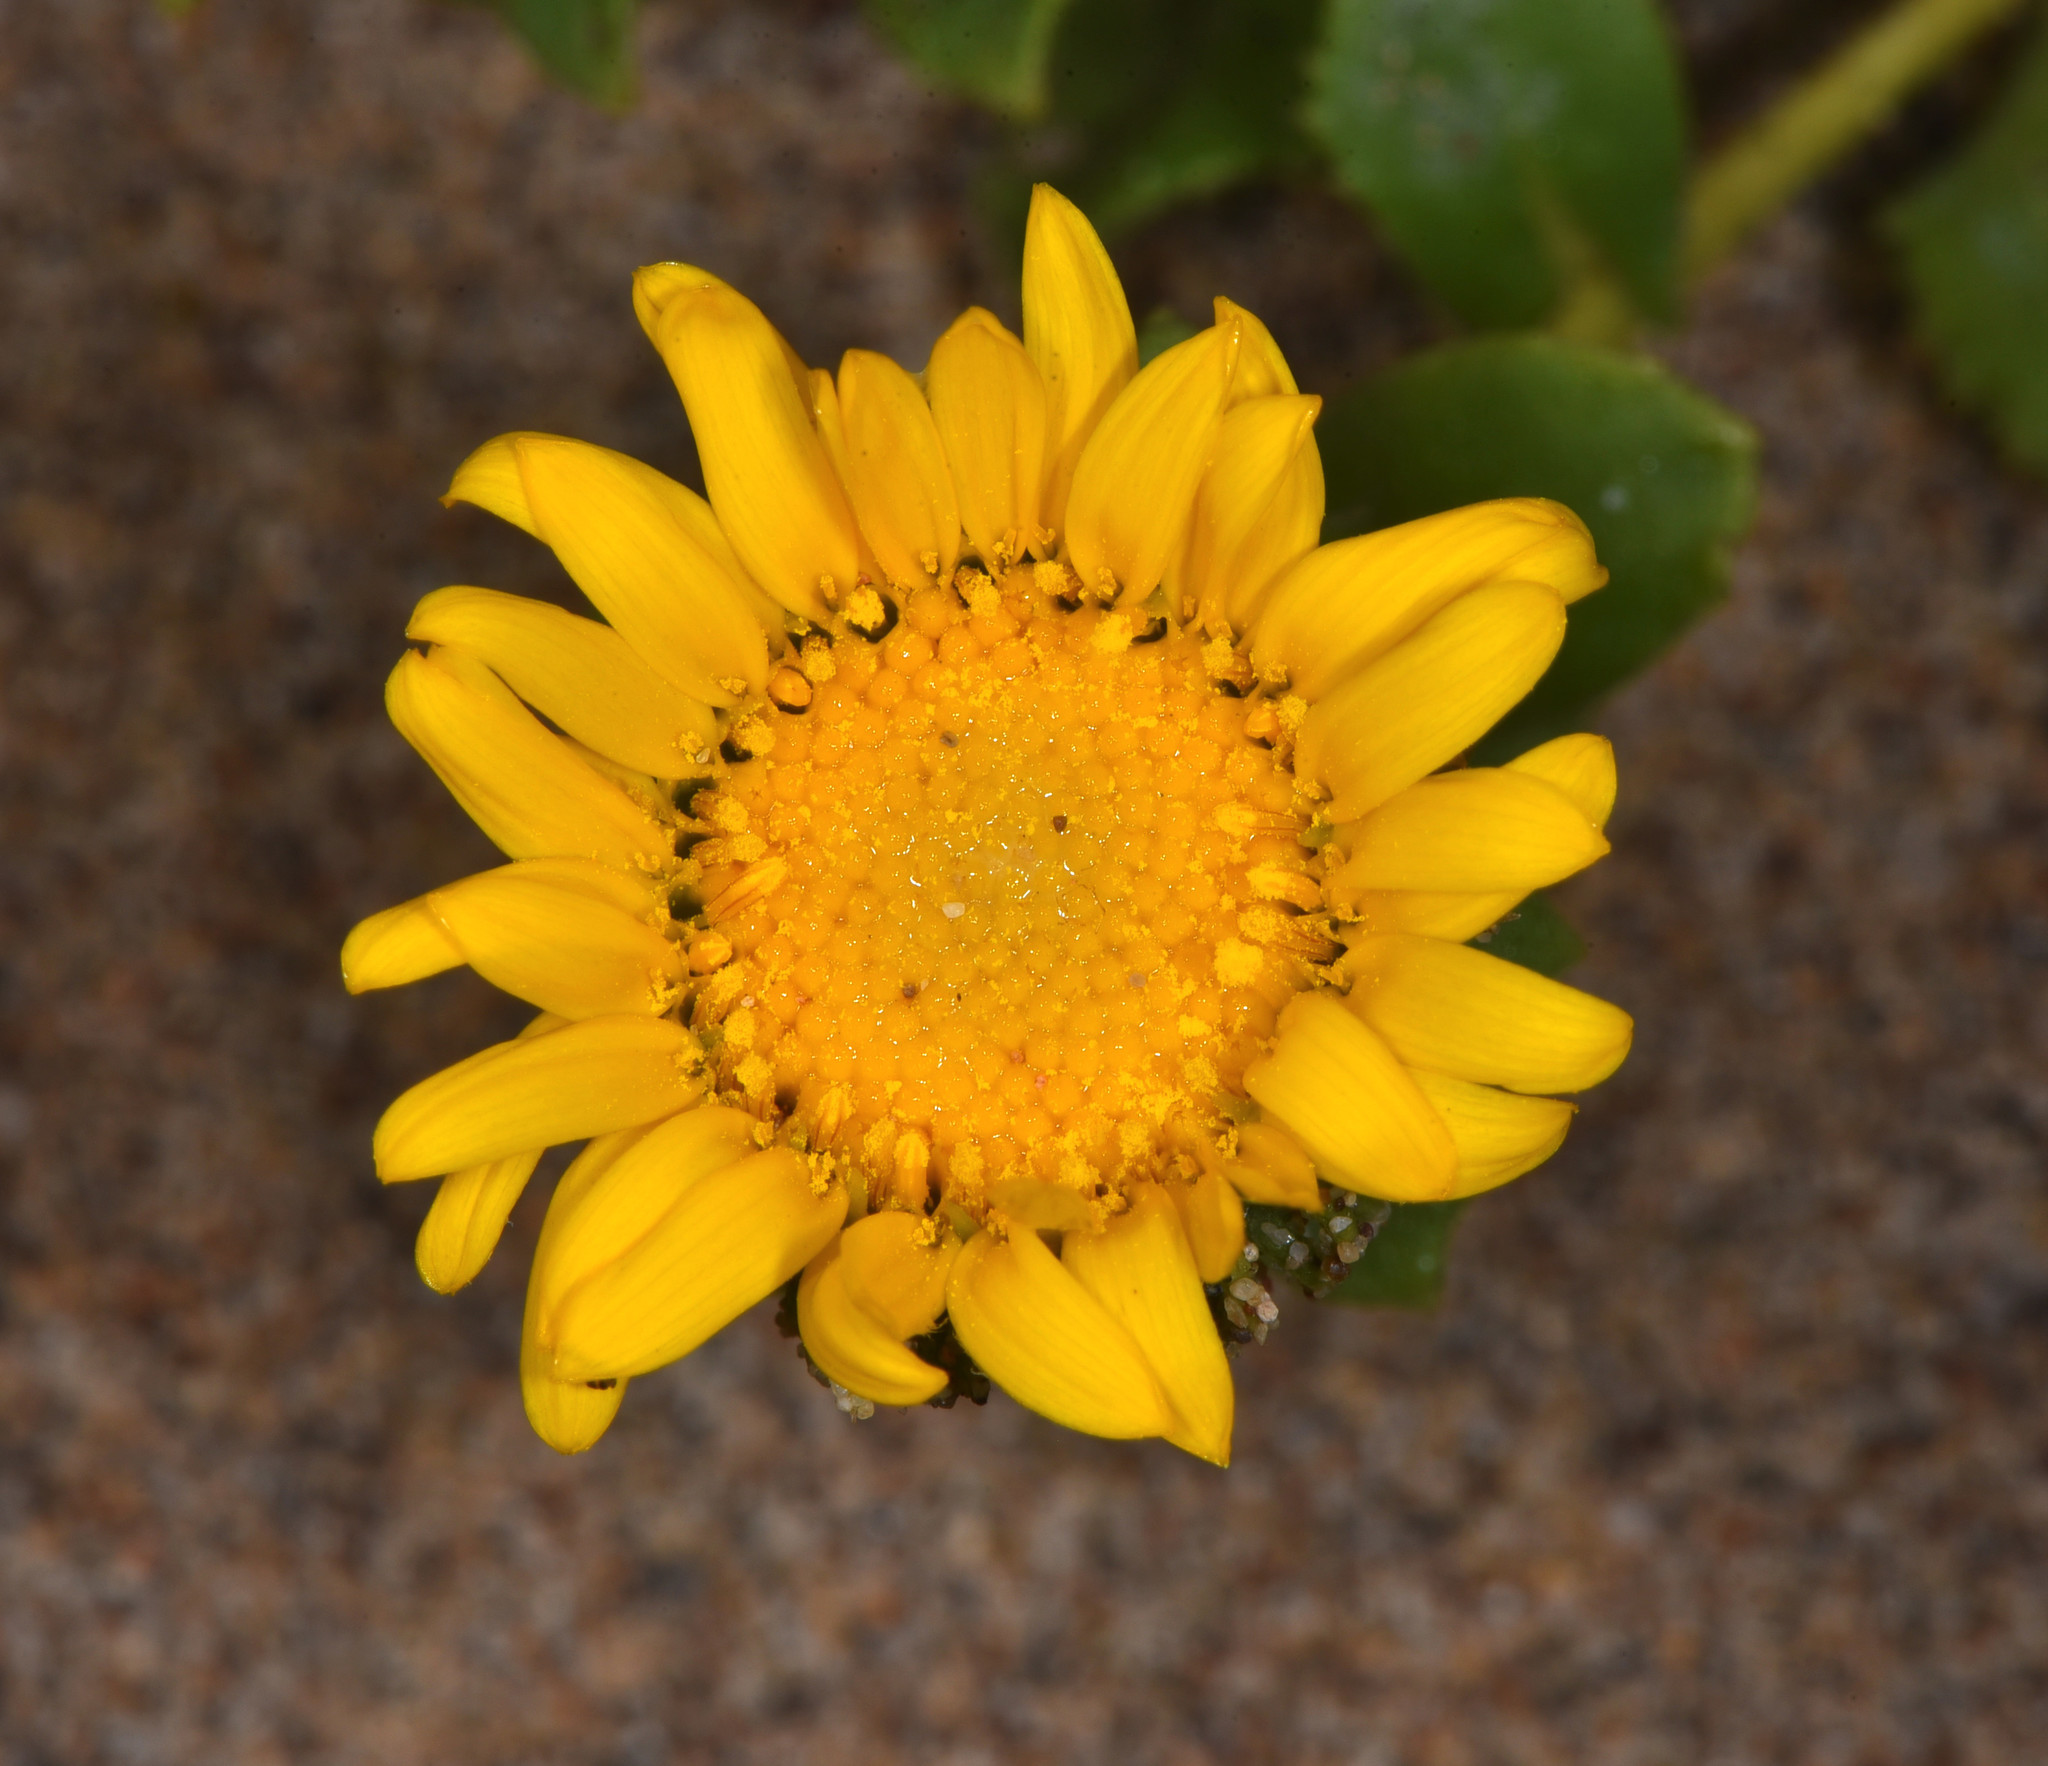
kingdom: Plantae
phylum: Tracheophyta
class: Magnoliopsida
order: Asterales
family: Asteraceae
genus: Grindelia
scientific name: Grindelia hirsutula
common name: Hairy gumweed
